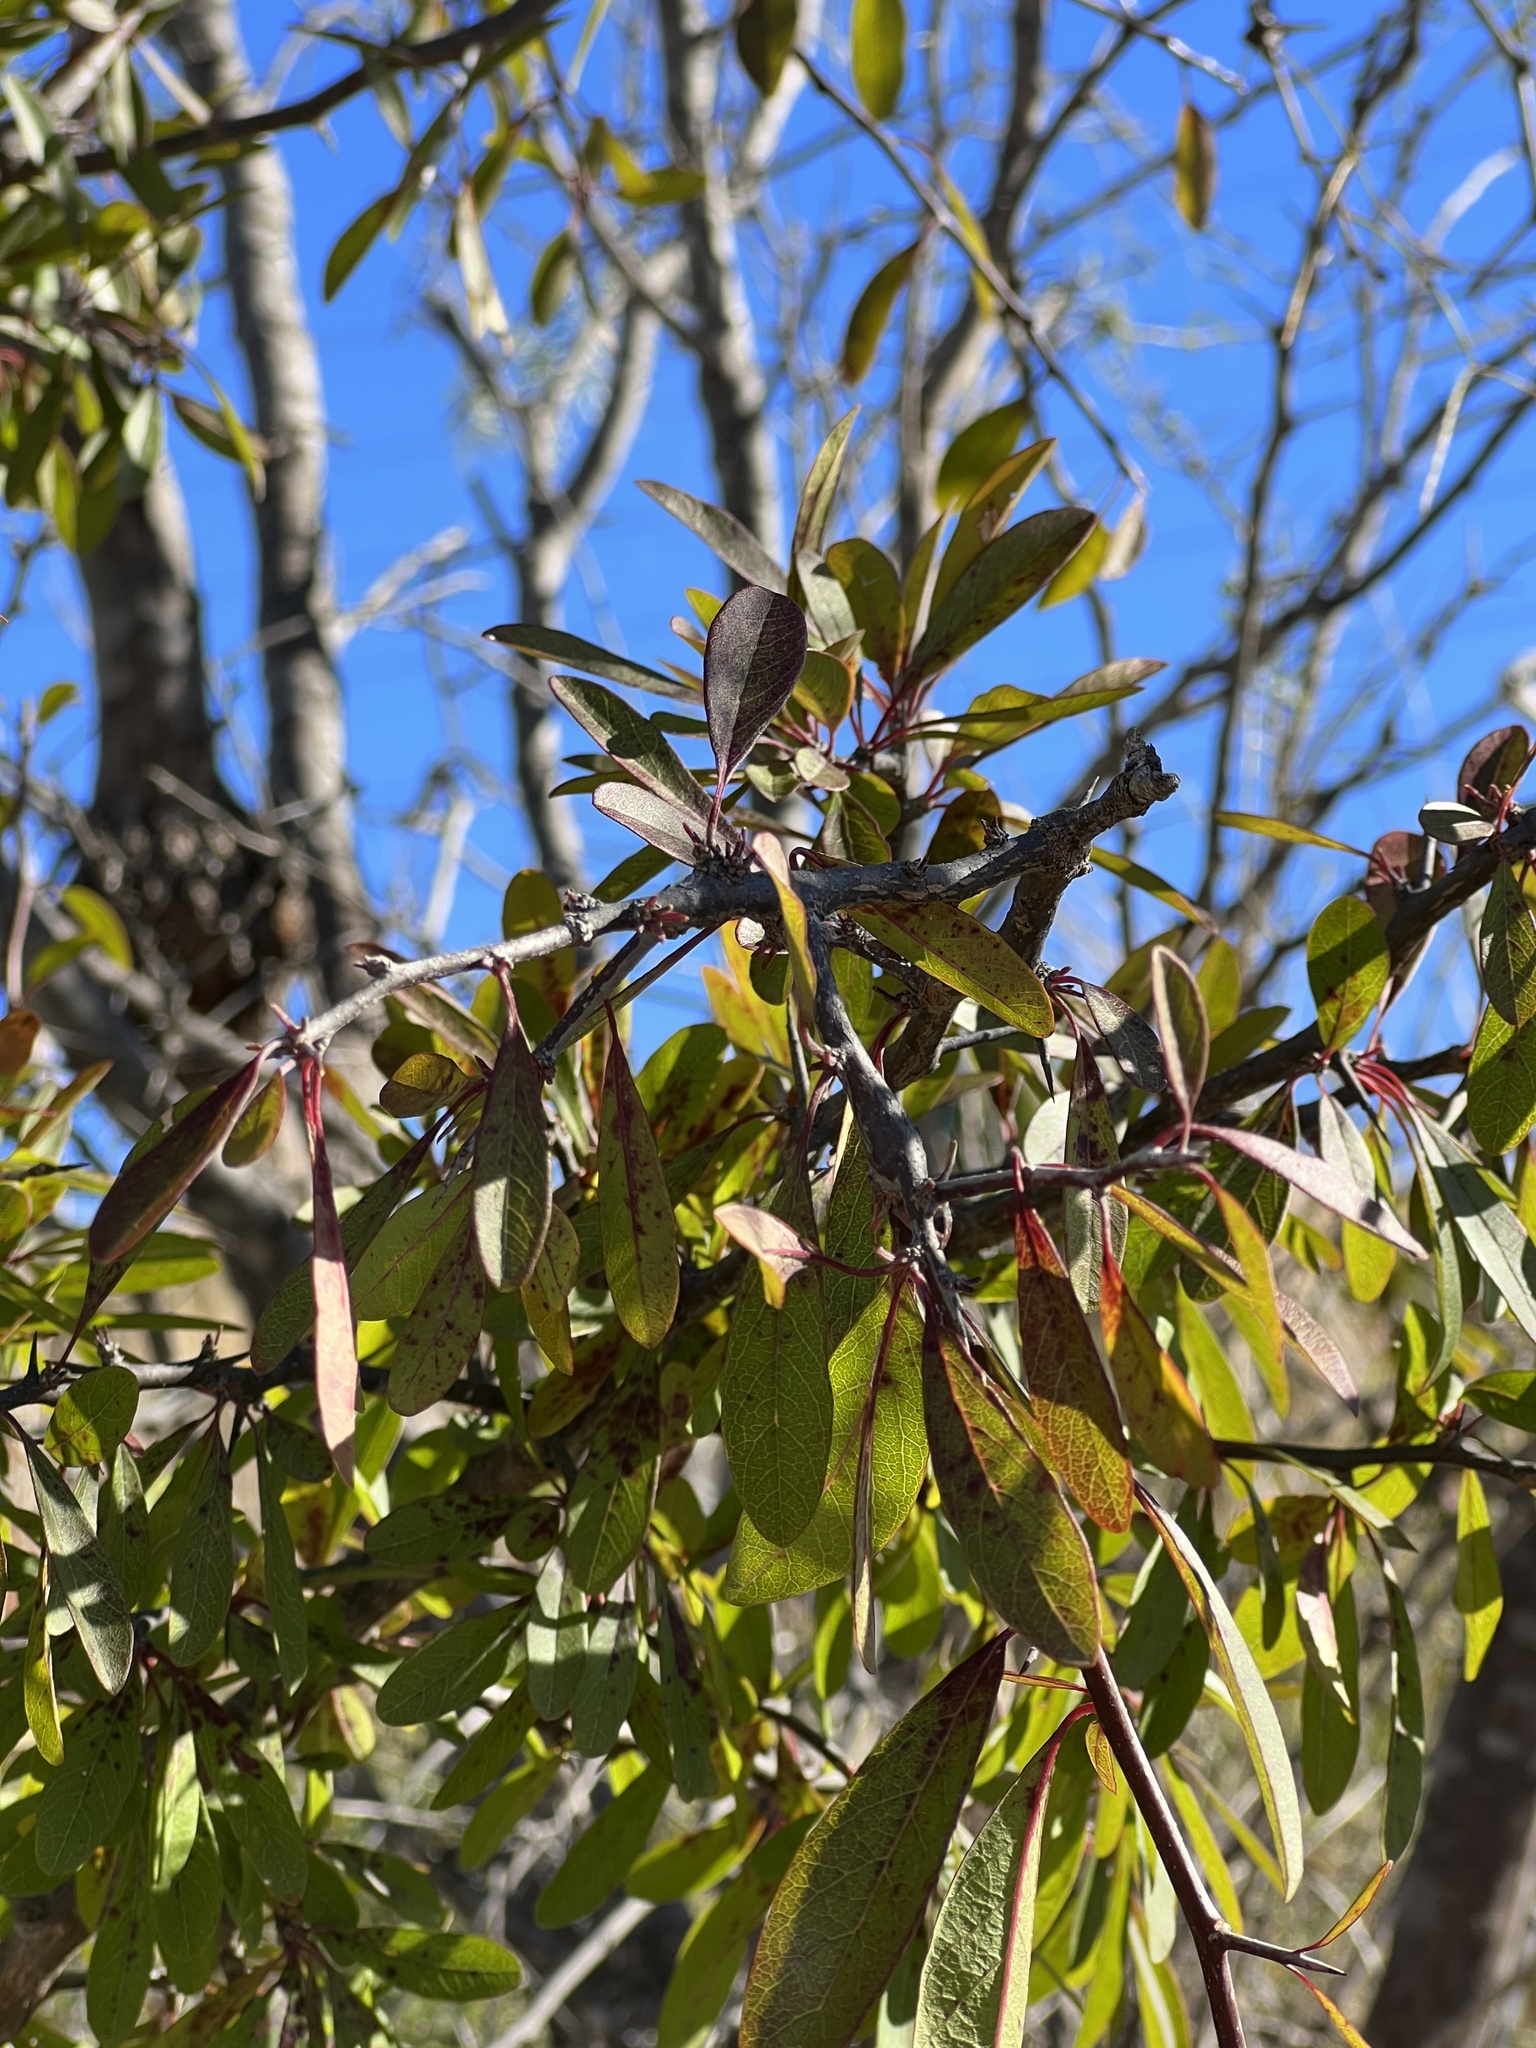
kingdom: Plantae
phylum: Tracheophyta
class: Magnoliopsida
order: Ericales
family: Sapotaceae
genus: Sideroxylon
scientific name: Sideroxylon lanuginosum
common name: Chittamwood
